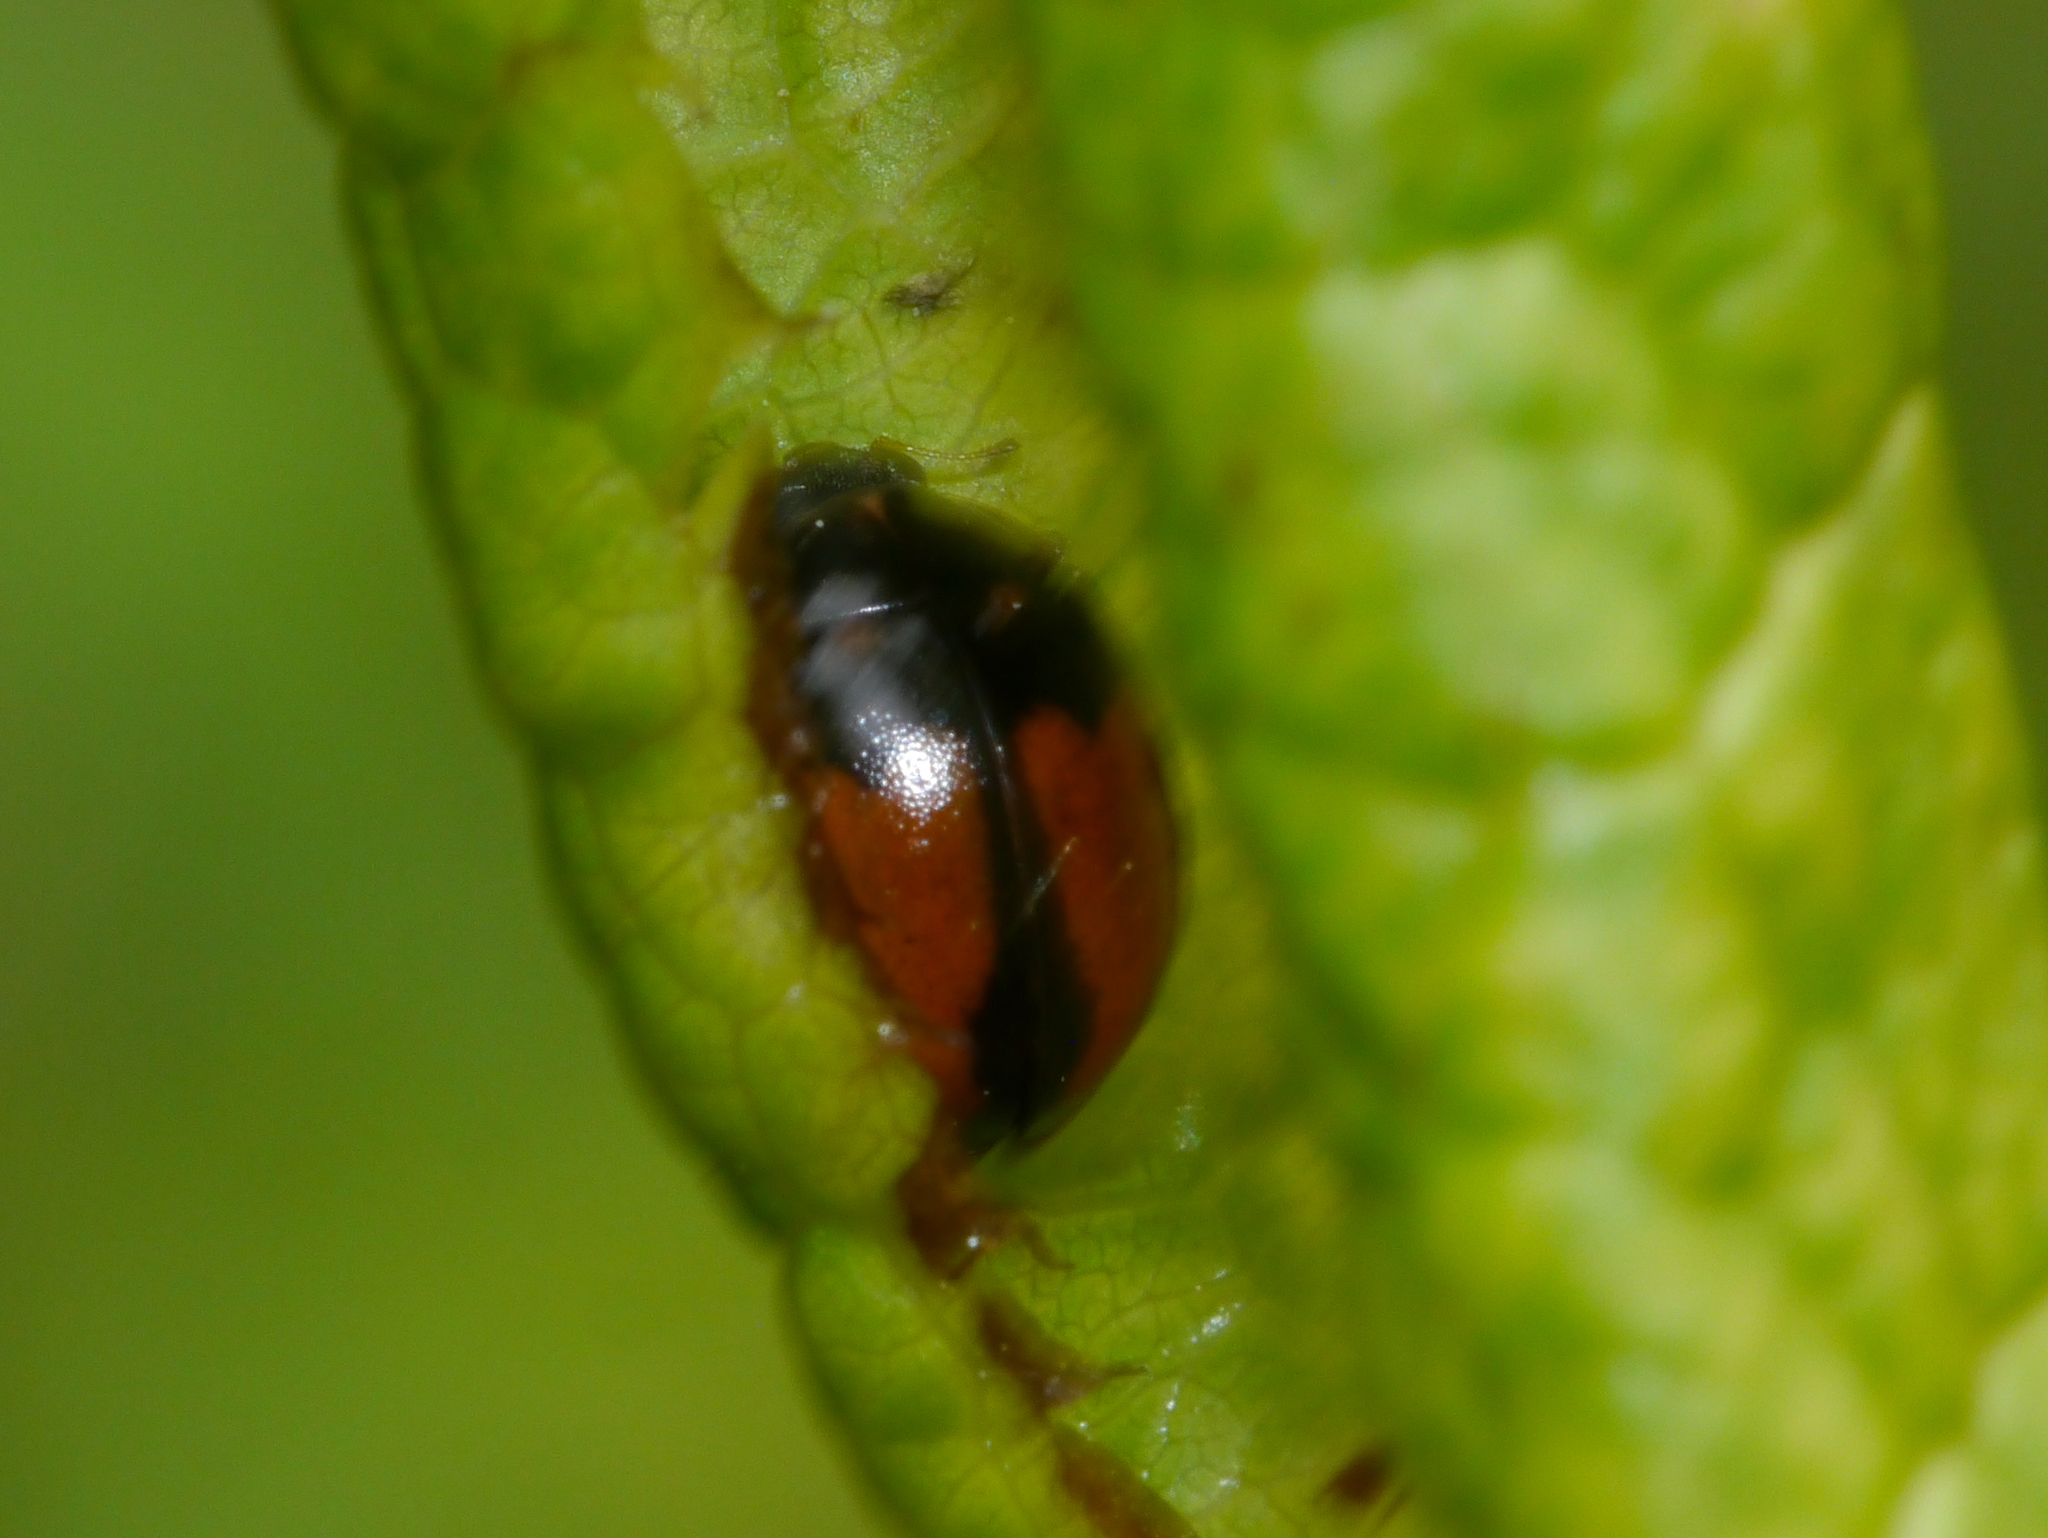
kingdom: Animalia
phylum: Arthropoda
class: Insecta
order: Coleoptera
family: Coccinellidae
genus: Calvia
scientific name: Calvia quatuordecimguttata
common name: Cream-spot ladybird
